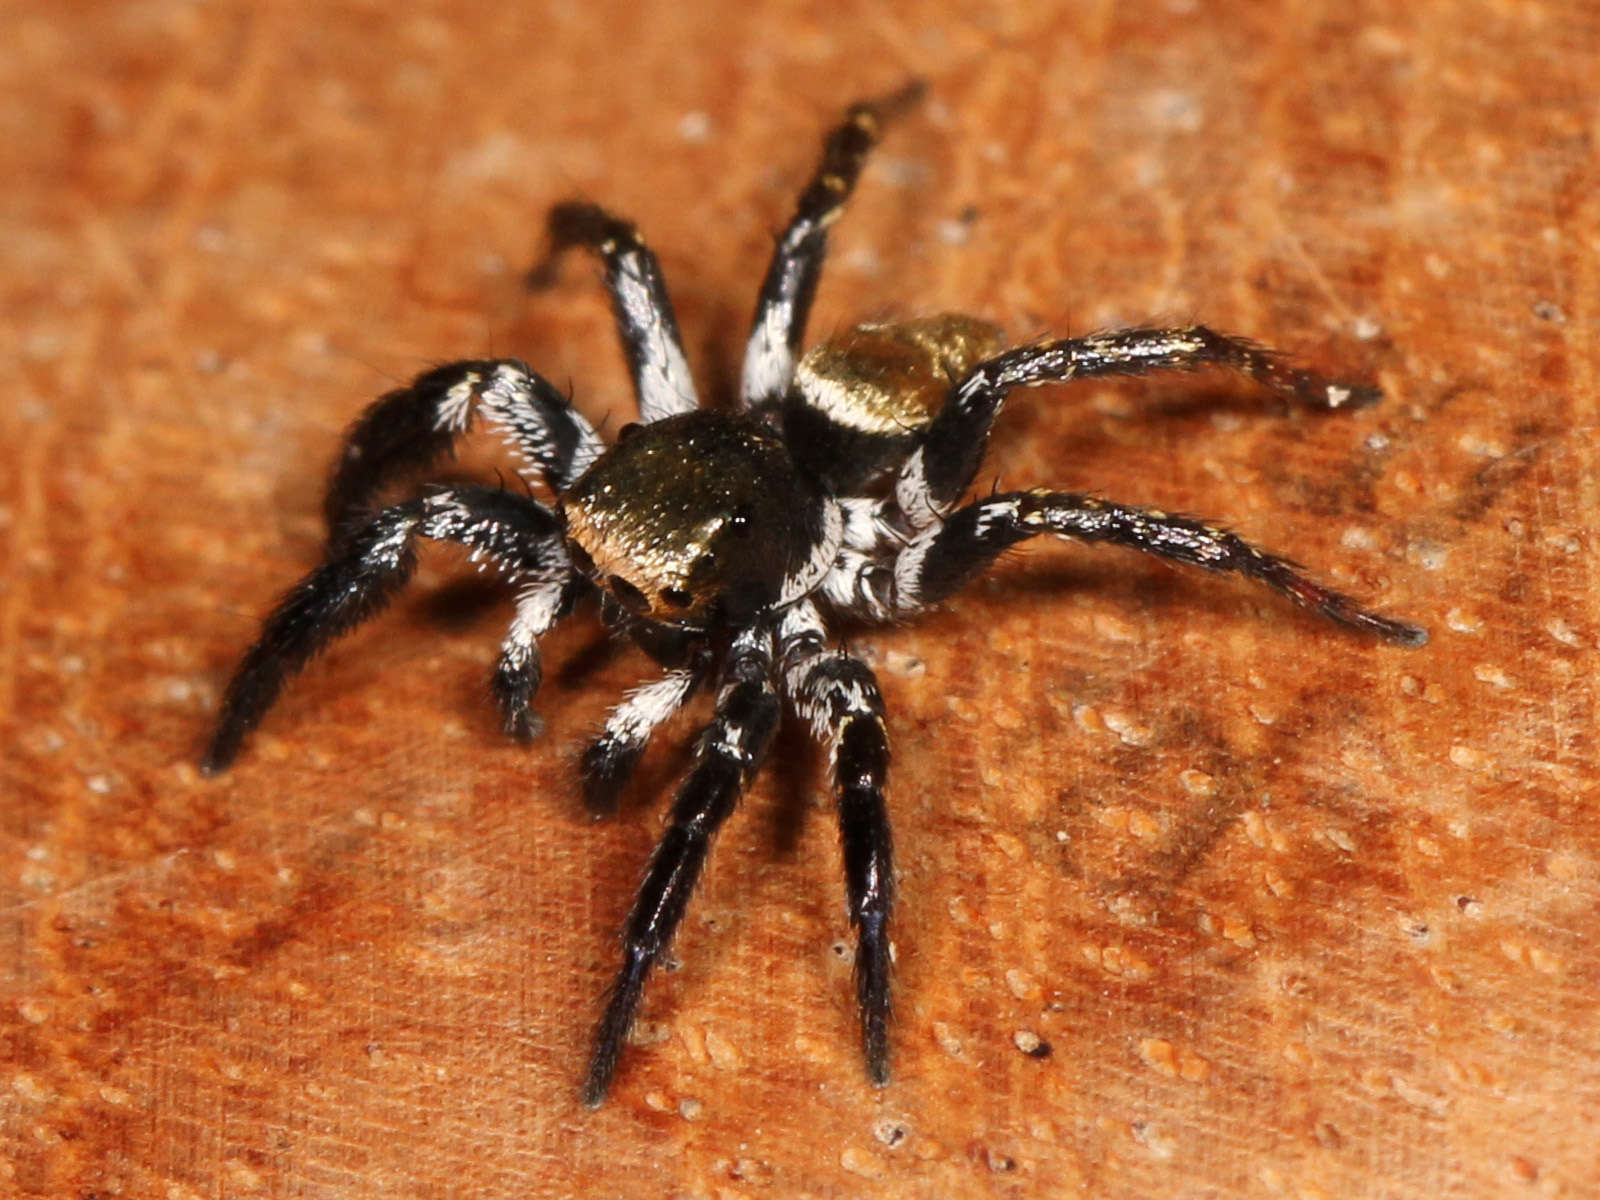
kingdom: Animalia
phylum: Arthropoda
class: Arachnida
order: Araneae
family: Salticidae
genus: Corythalia
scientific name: Corythalia parvula
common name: Jumping spiders
